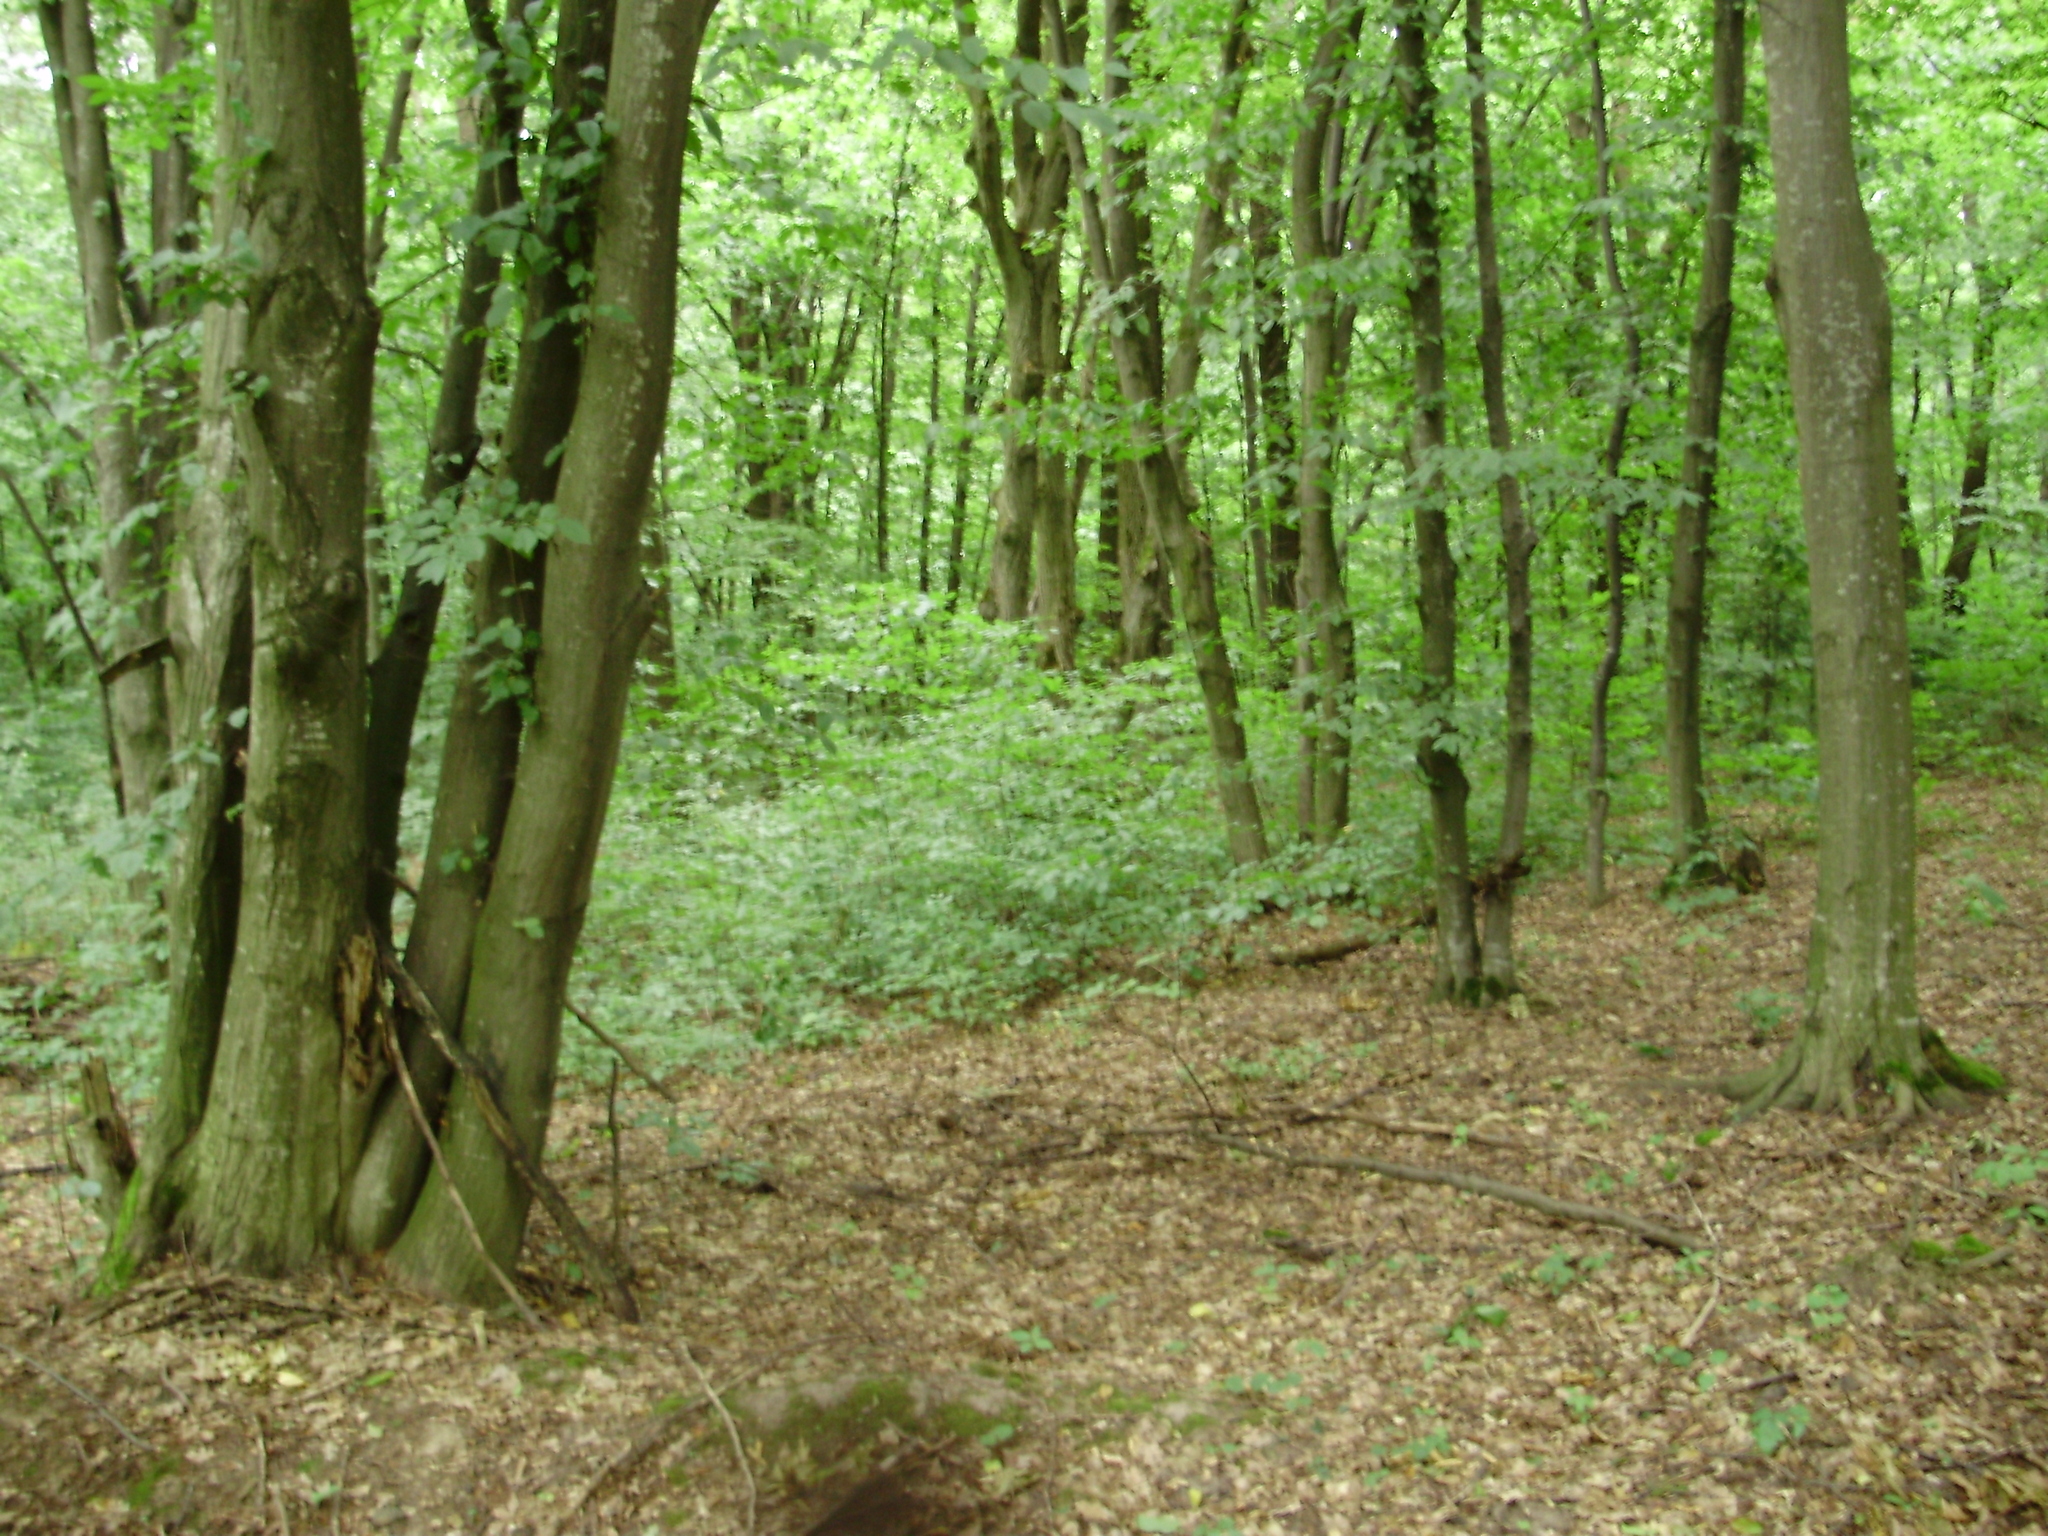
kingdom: Plantae
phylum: Tracheophyta
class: Magnoliopsida
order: Fagales
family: Betulaceae
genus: Carpinus
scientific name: Carpinus betulus
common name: Hornbeam
